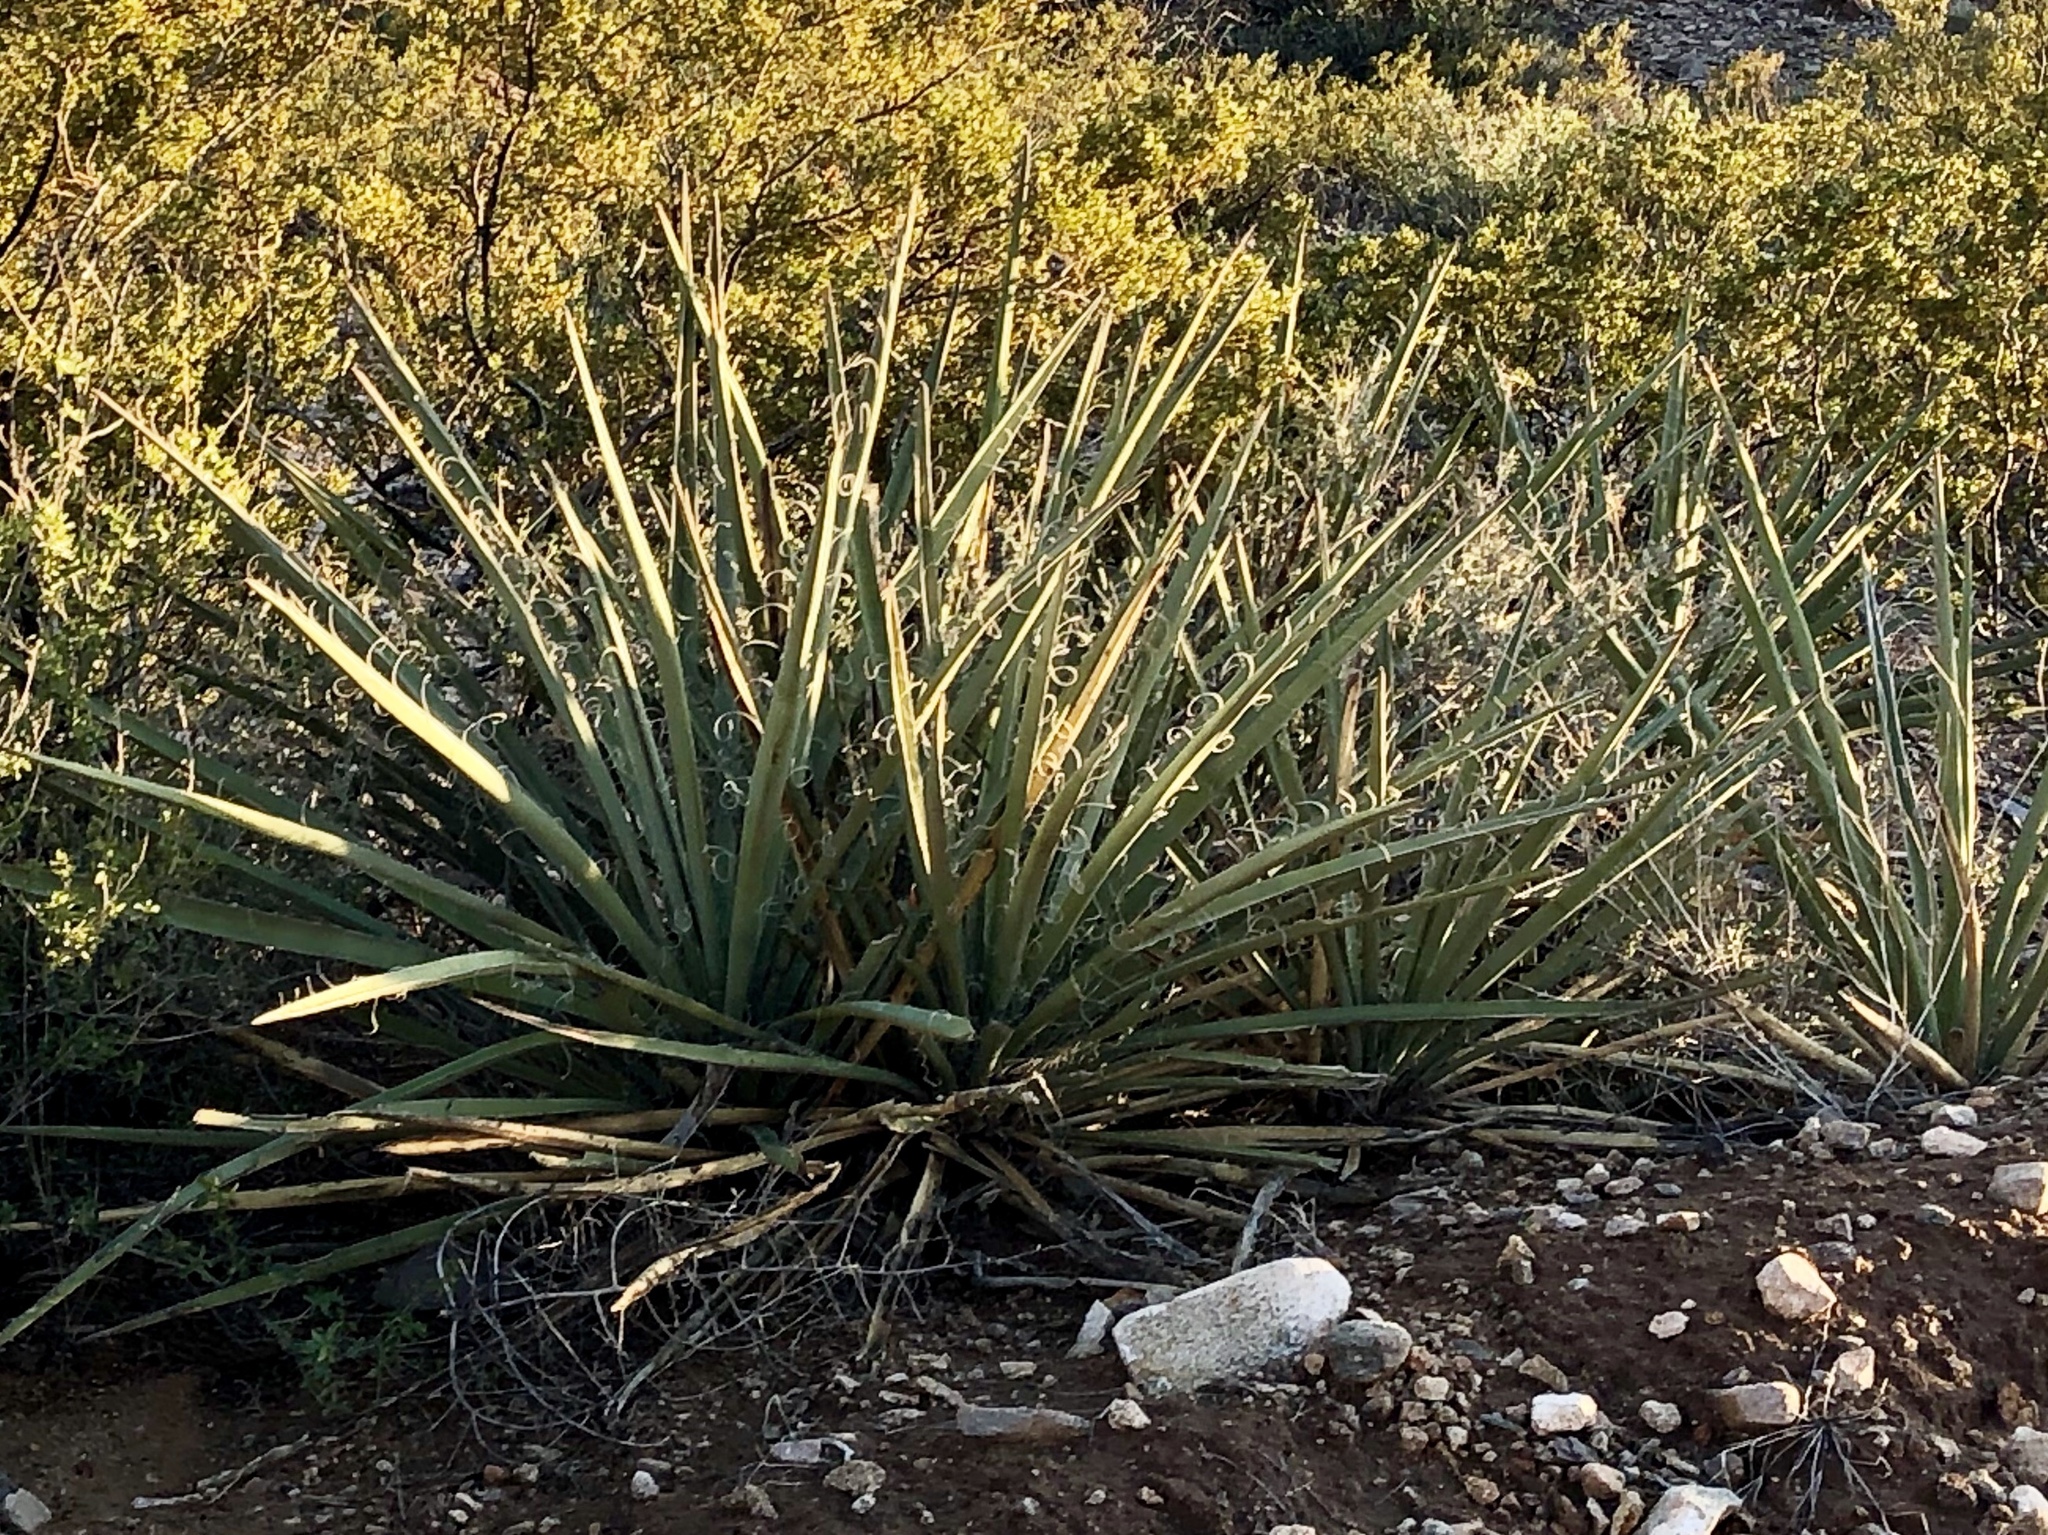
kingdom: Plantae
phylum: Tracheophyta
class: Liliopsida
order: Asparagales
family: Asparagaceae
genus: Yucca
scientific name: Yucca baccata
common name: Banana yucca
